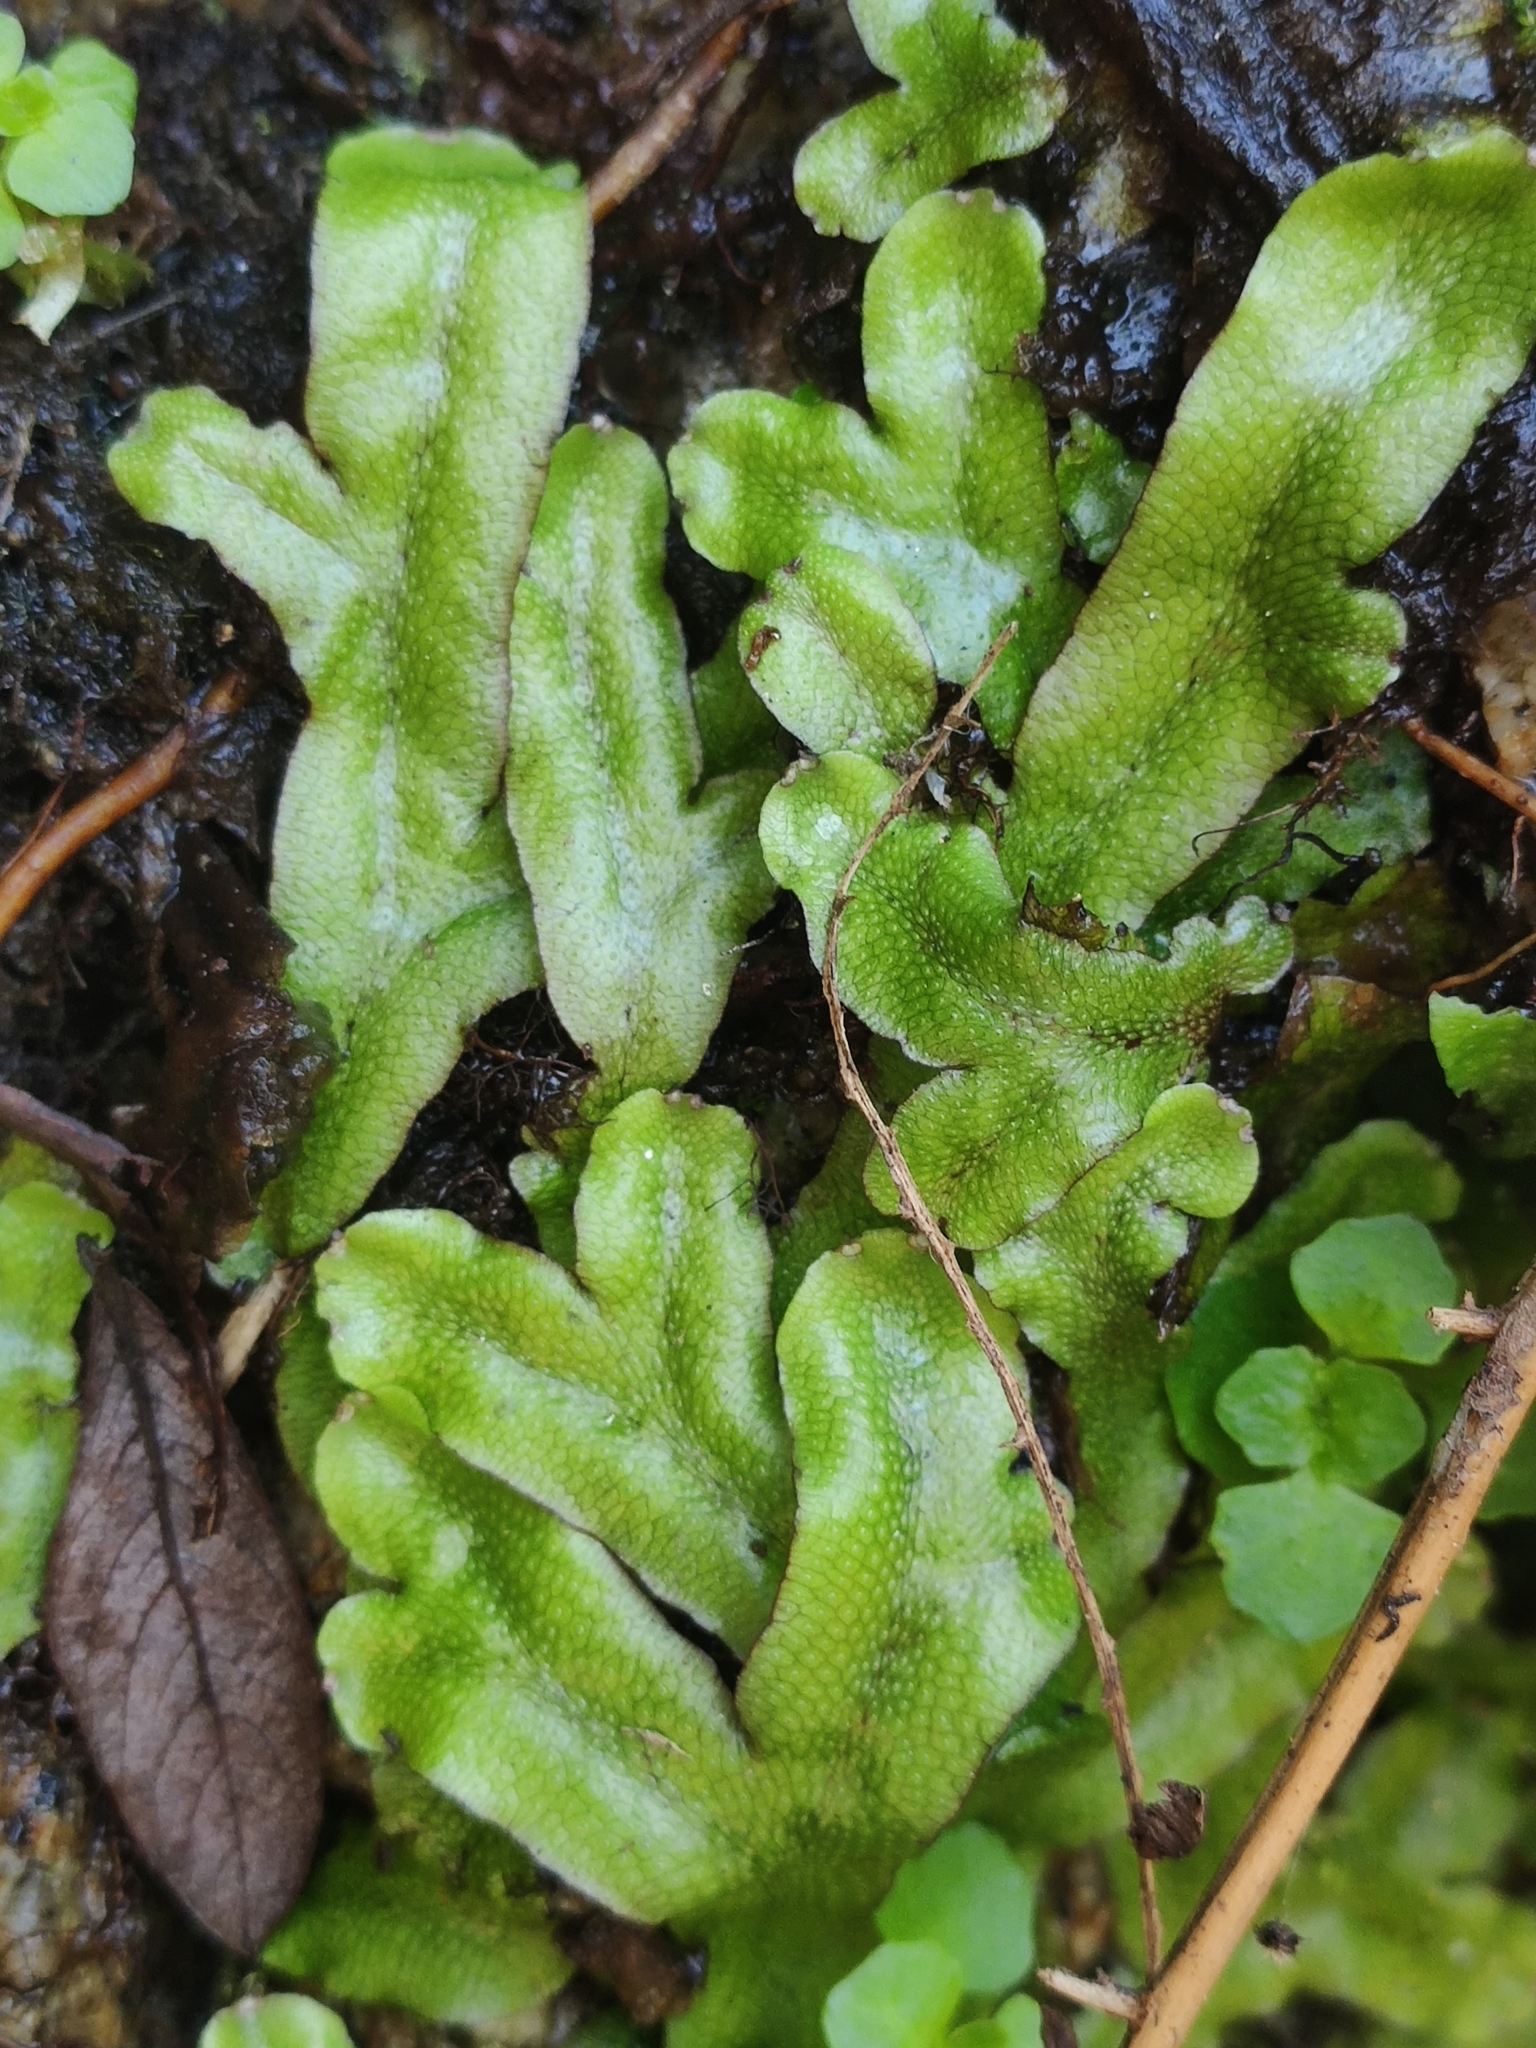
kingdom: Plantae
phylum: Marchantiophyta
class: Marchantiopsida
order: Marchantiales
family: Conocephalaceae
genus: Conocephalum
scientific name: Conocephalum conicum
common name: Great scented liverwort
